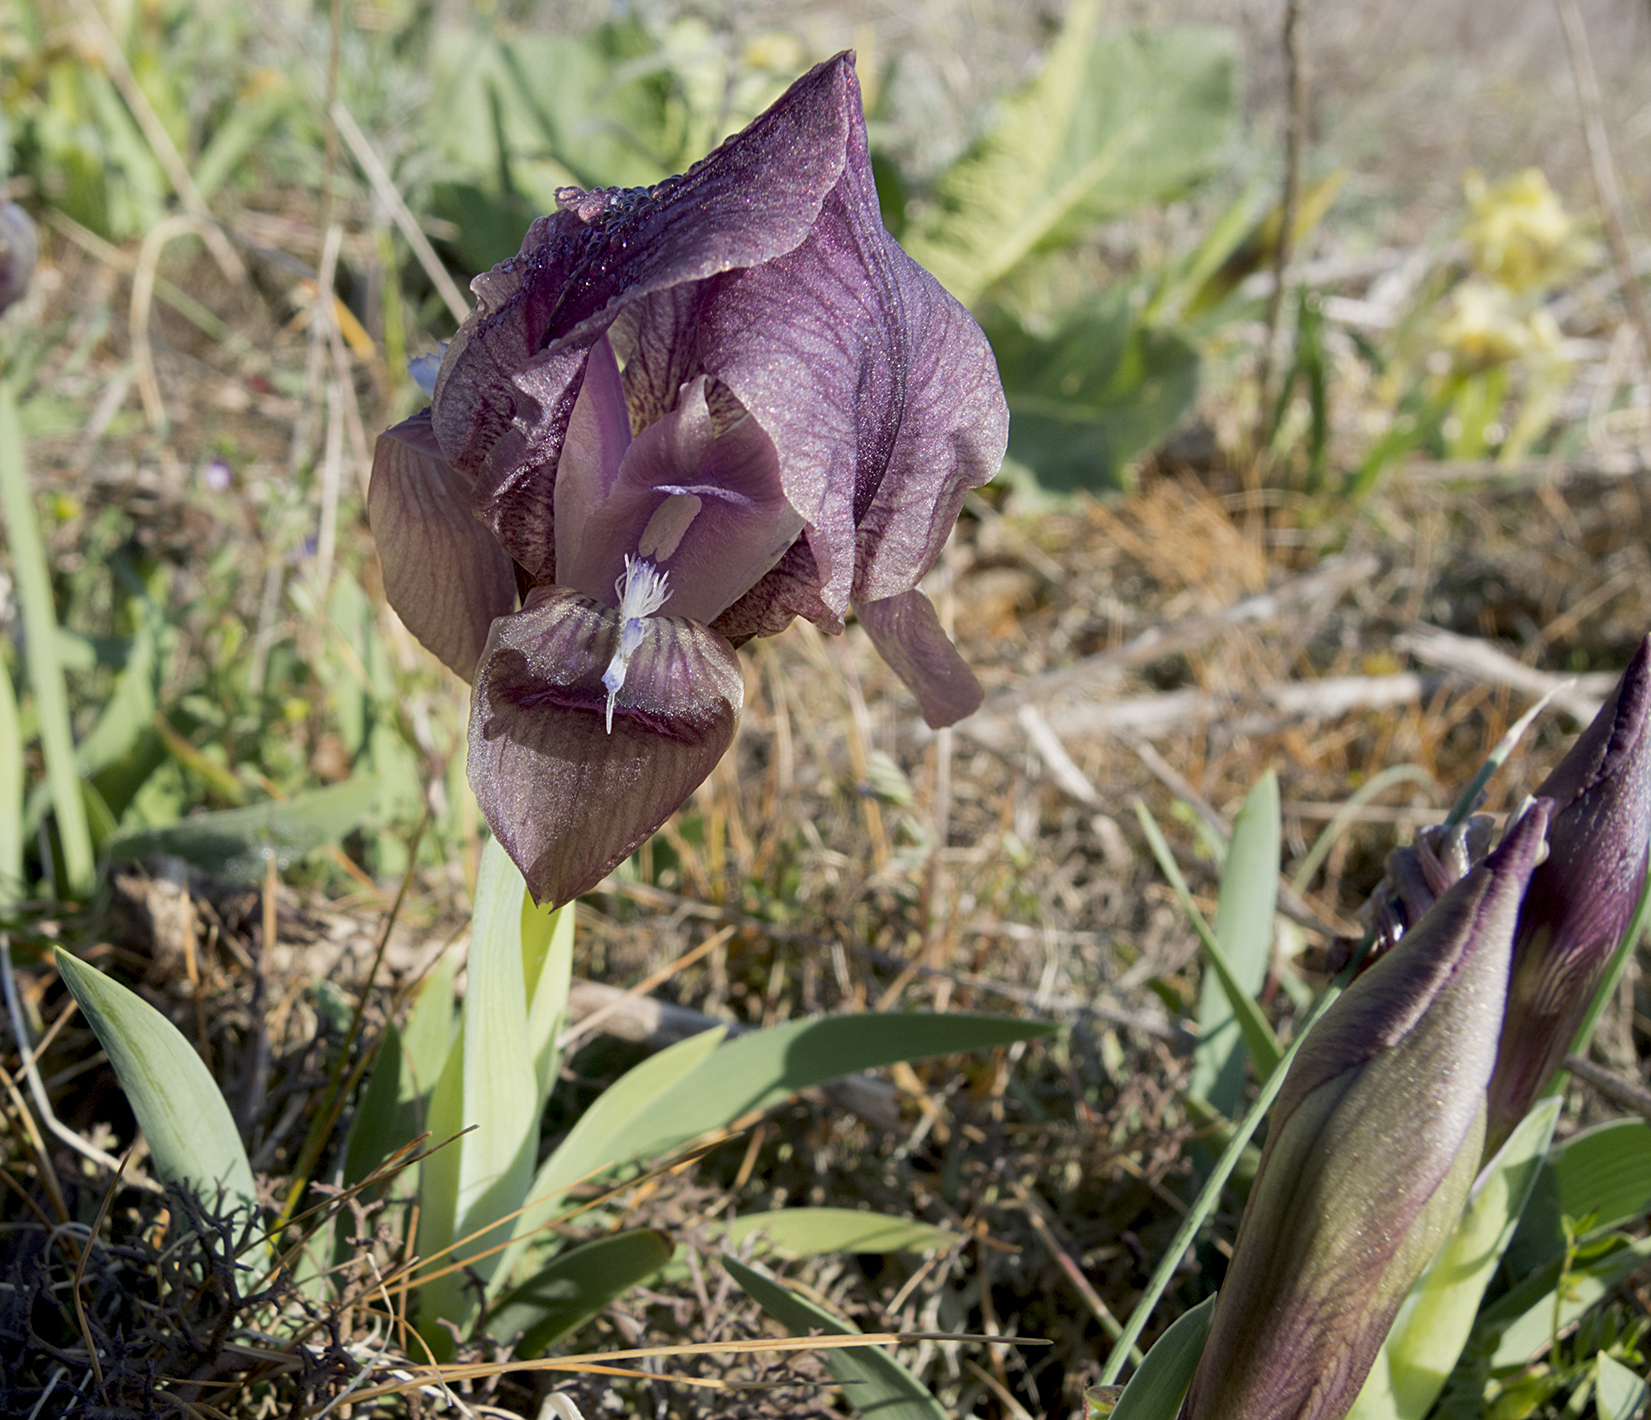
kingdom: Plantae
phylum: Tracheophyta
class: Liliopsida
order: Asparagales
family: Iridaceae
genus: Iris
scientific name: Iris suaveolens
